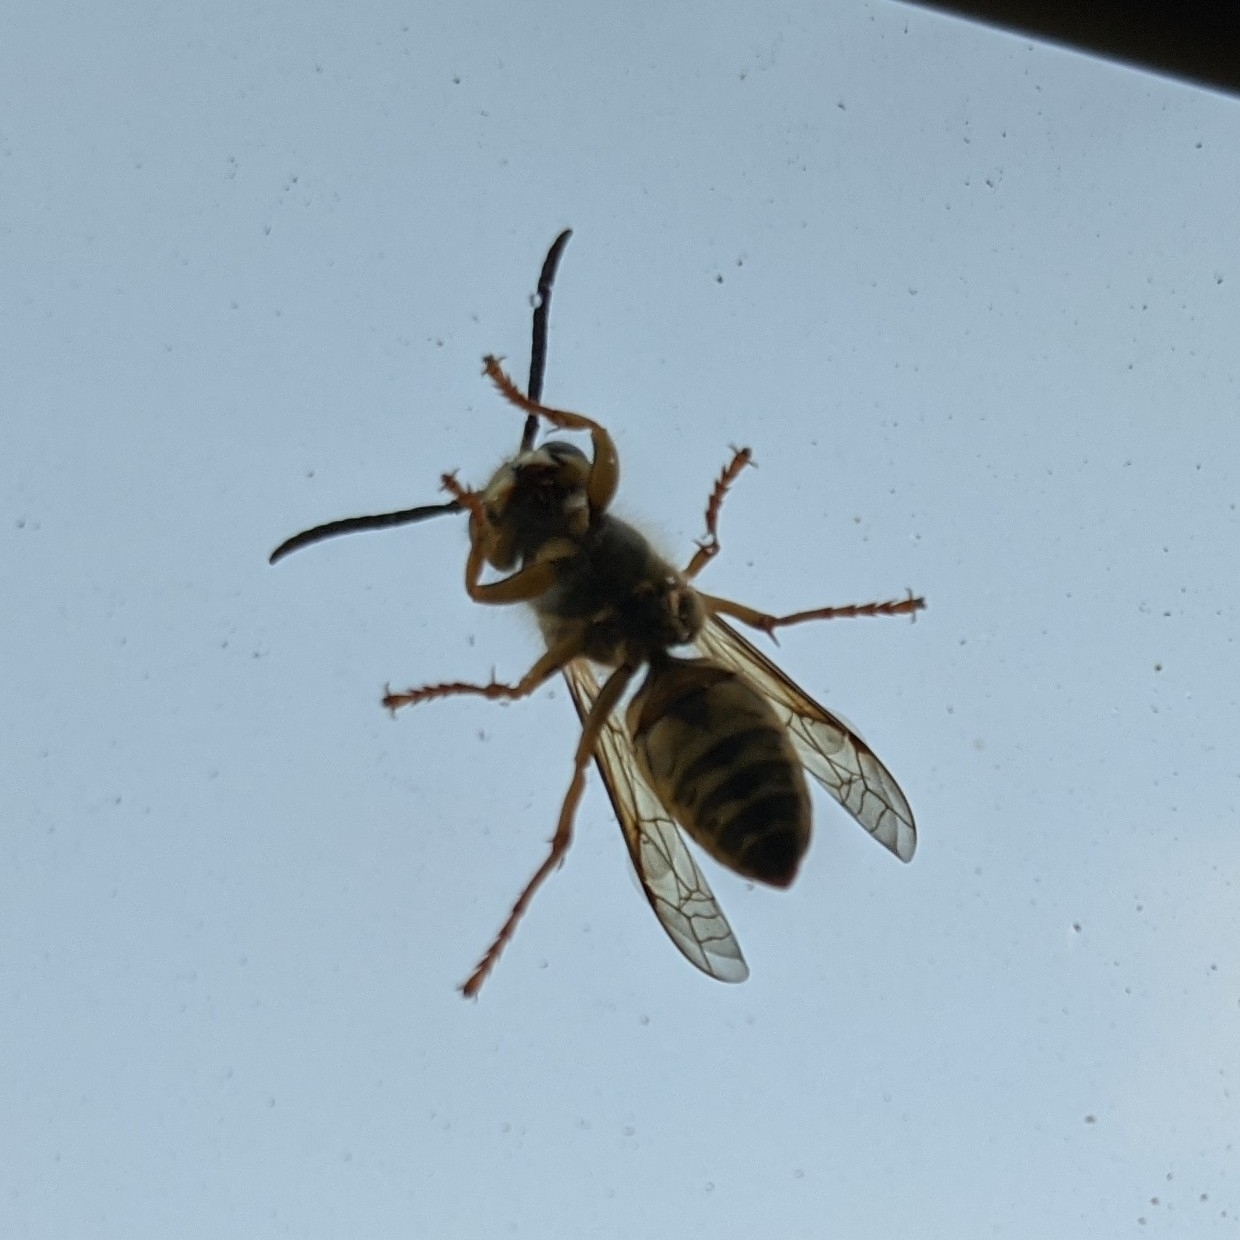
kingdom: Animalia
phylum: Arthropoda
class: Insecta
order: Hymenoptera
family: Vespidae
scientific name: Vespidae
